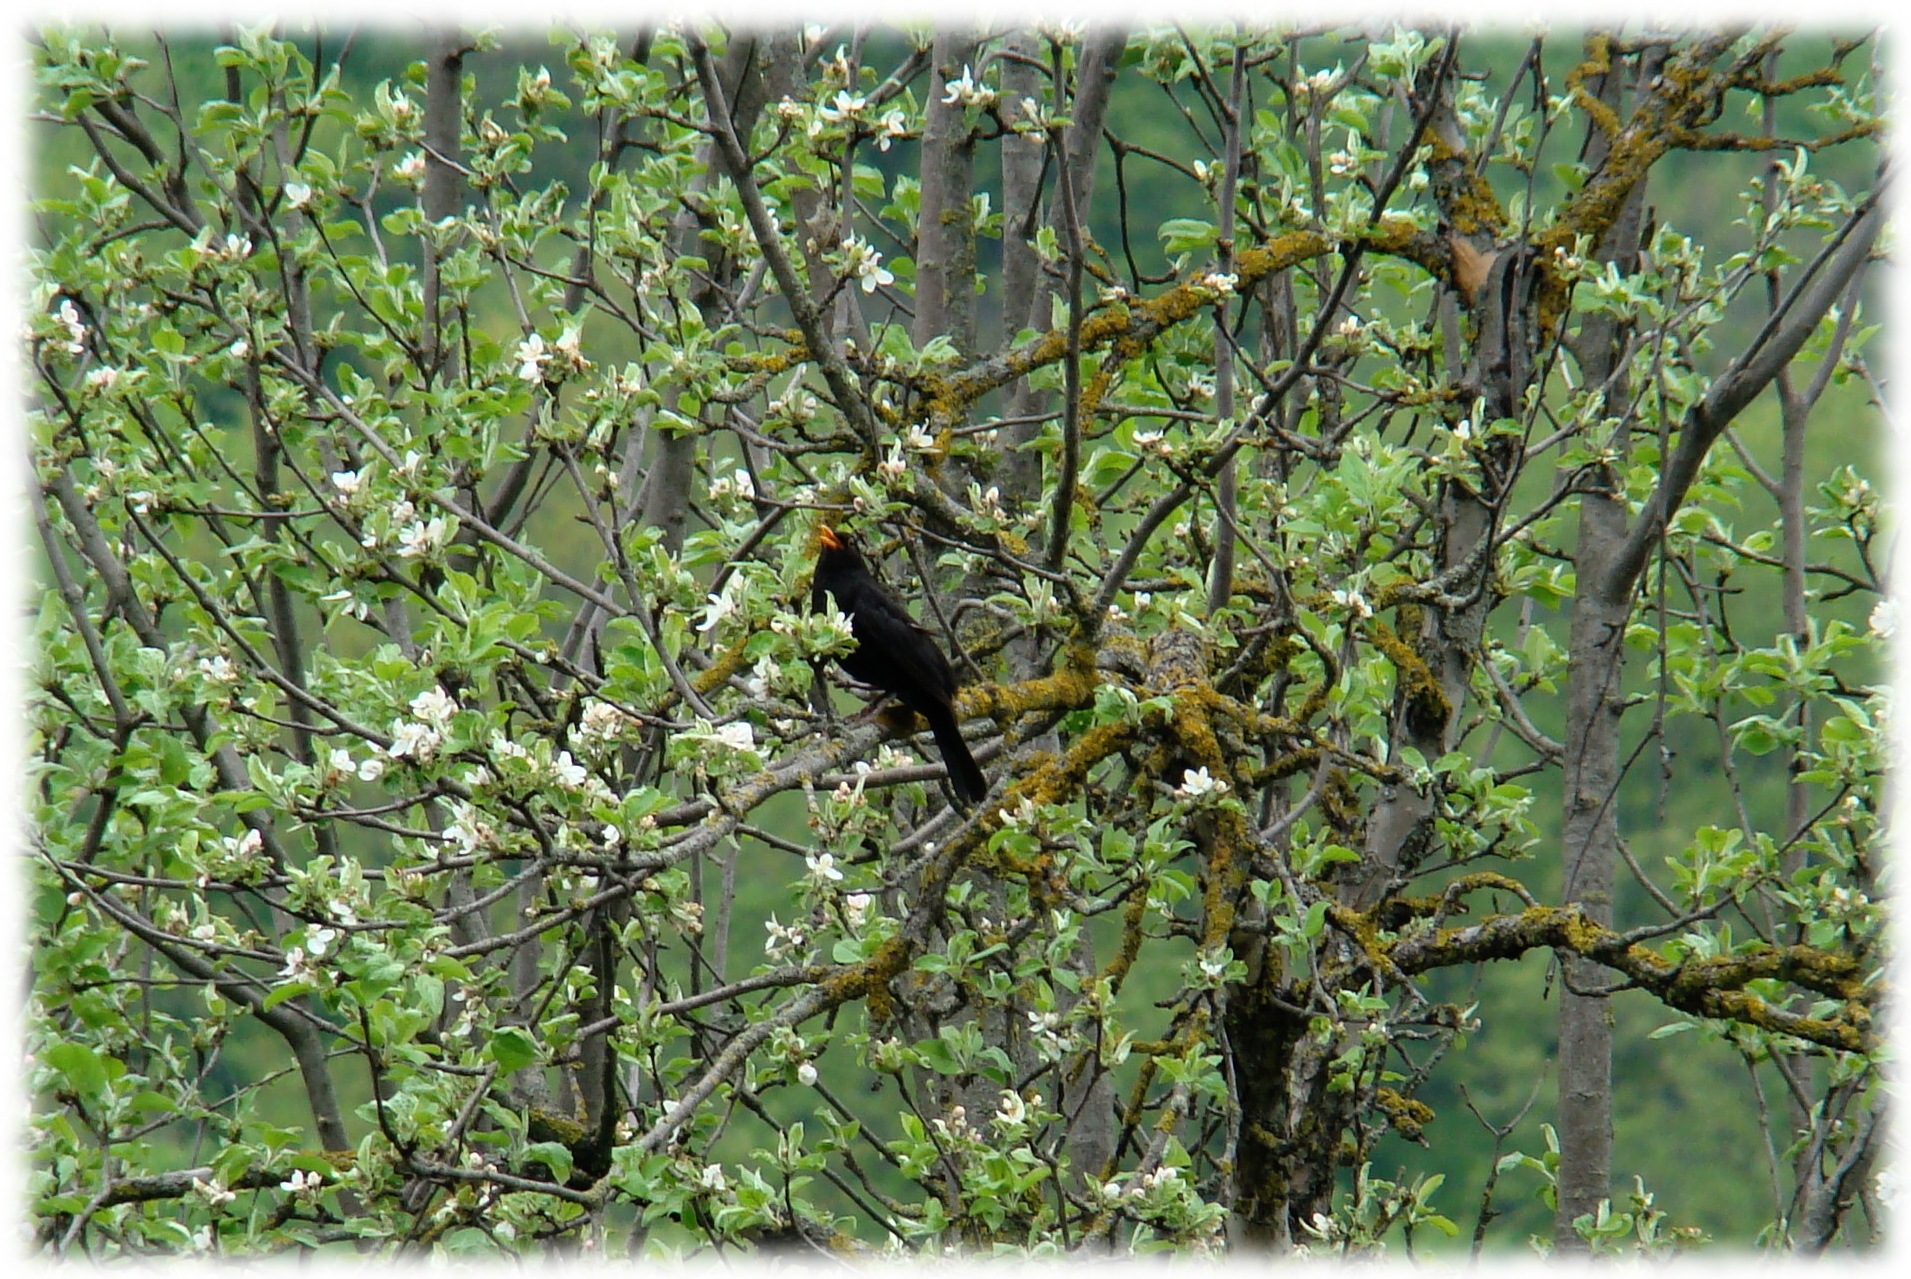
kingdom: Animalia
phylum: Chordata
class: Aves
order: Passeriformes
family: Turdidae
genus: Turdus
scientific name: Turdus merula
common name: Common blackbird
